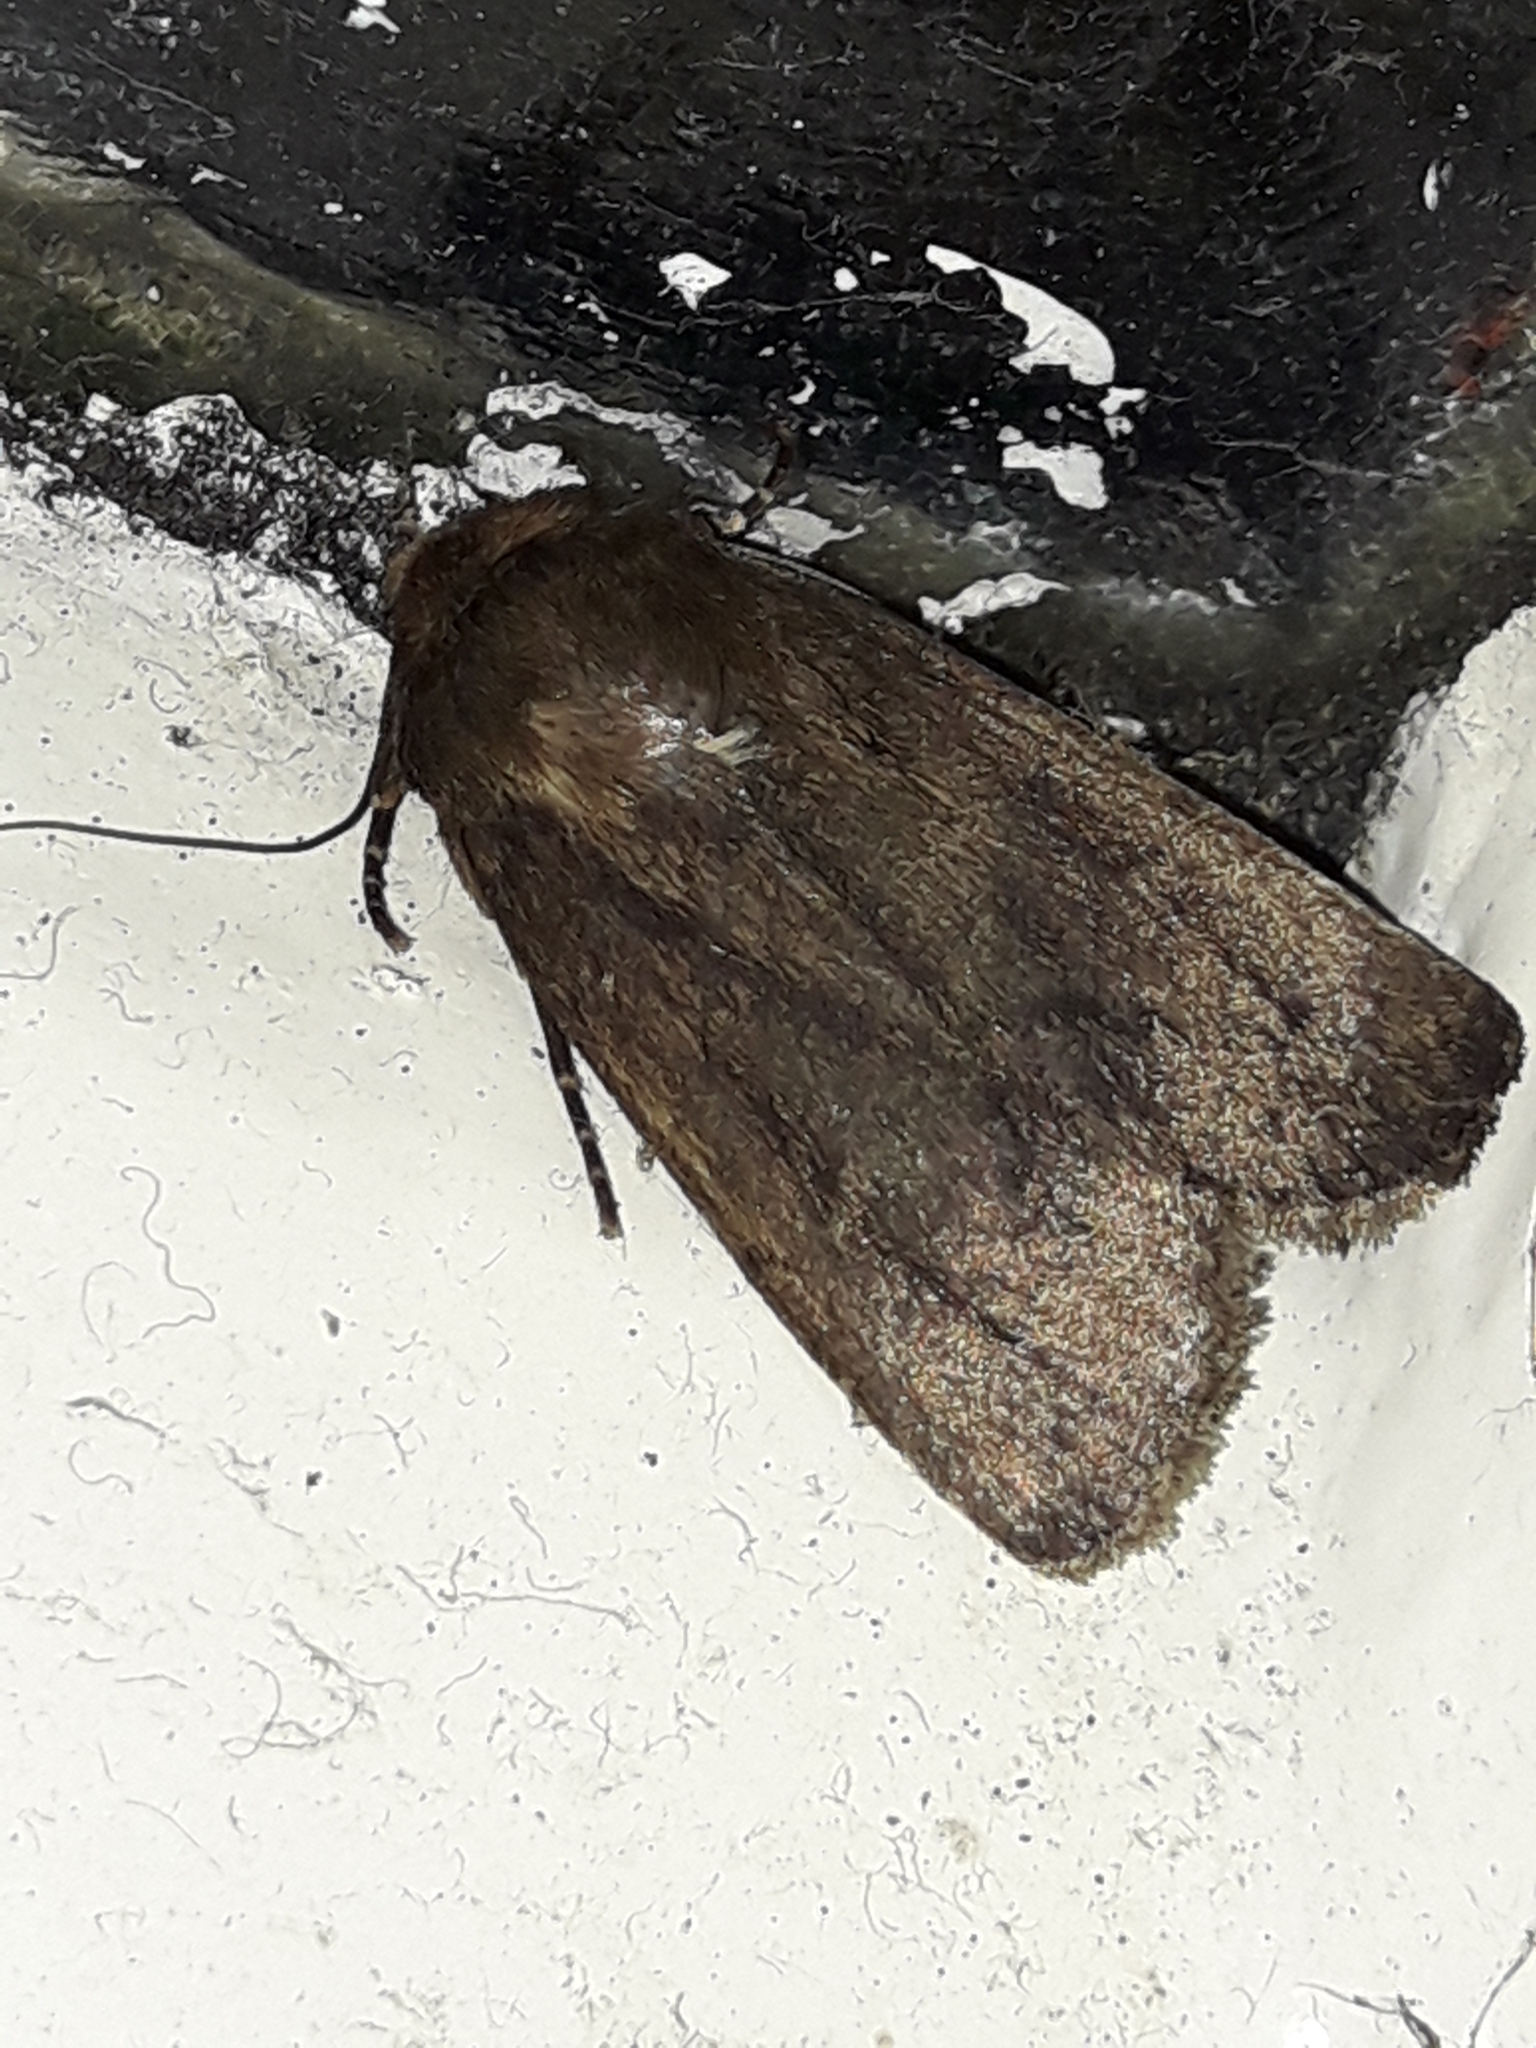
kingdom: Animalia
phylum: Arthropoda
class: Insecta
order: Lepidoptera
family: Noctuidae
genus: Bityla
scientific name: Bityla defigurata
